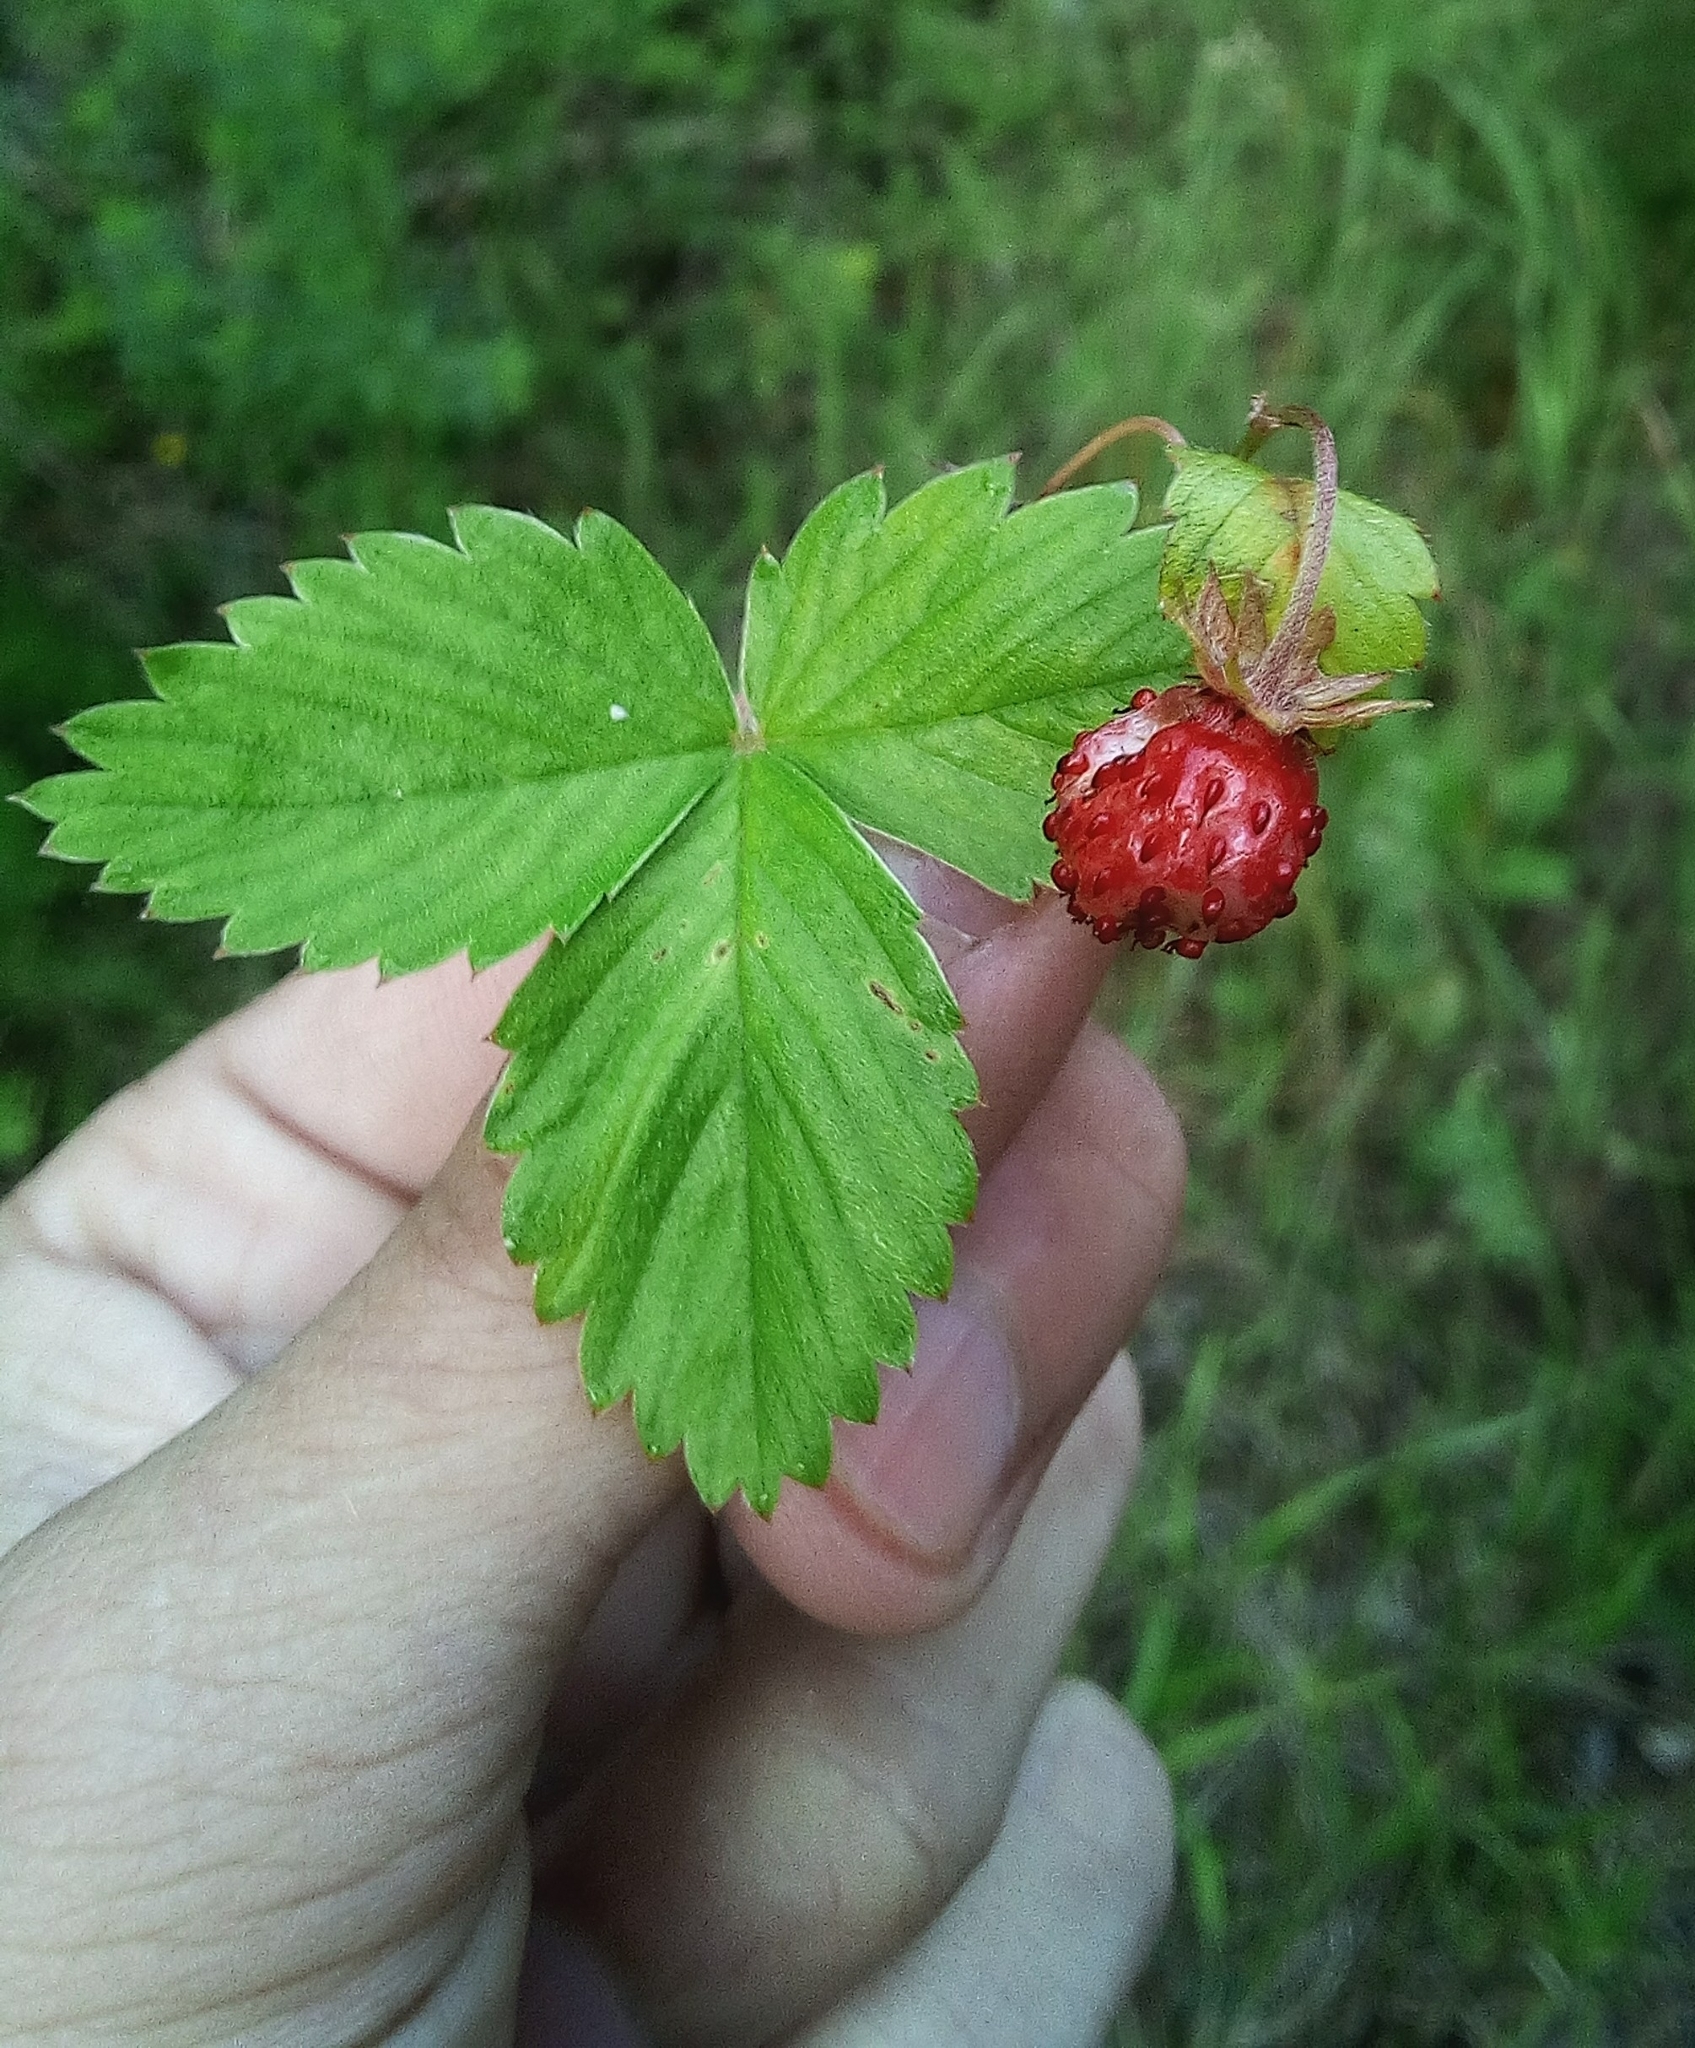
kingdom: Plantae
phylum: Tracheophyta
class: Magnoliopsida
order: Rosales
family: Rosaceae
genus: Fragaria
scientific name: Fragaria vesca
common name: Wild strawberry
